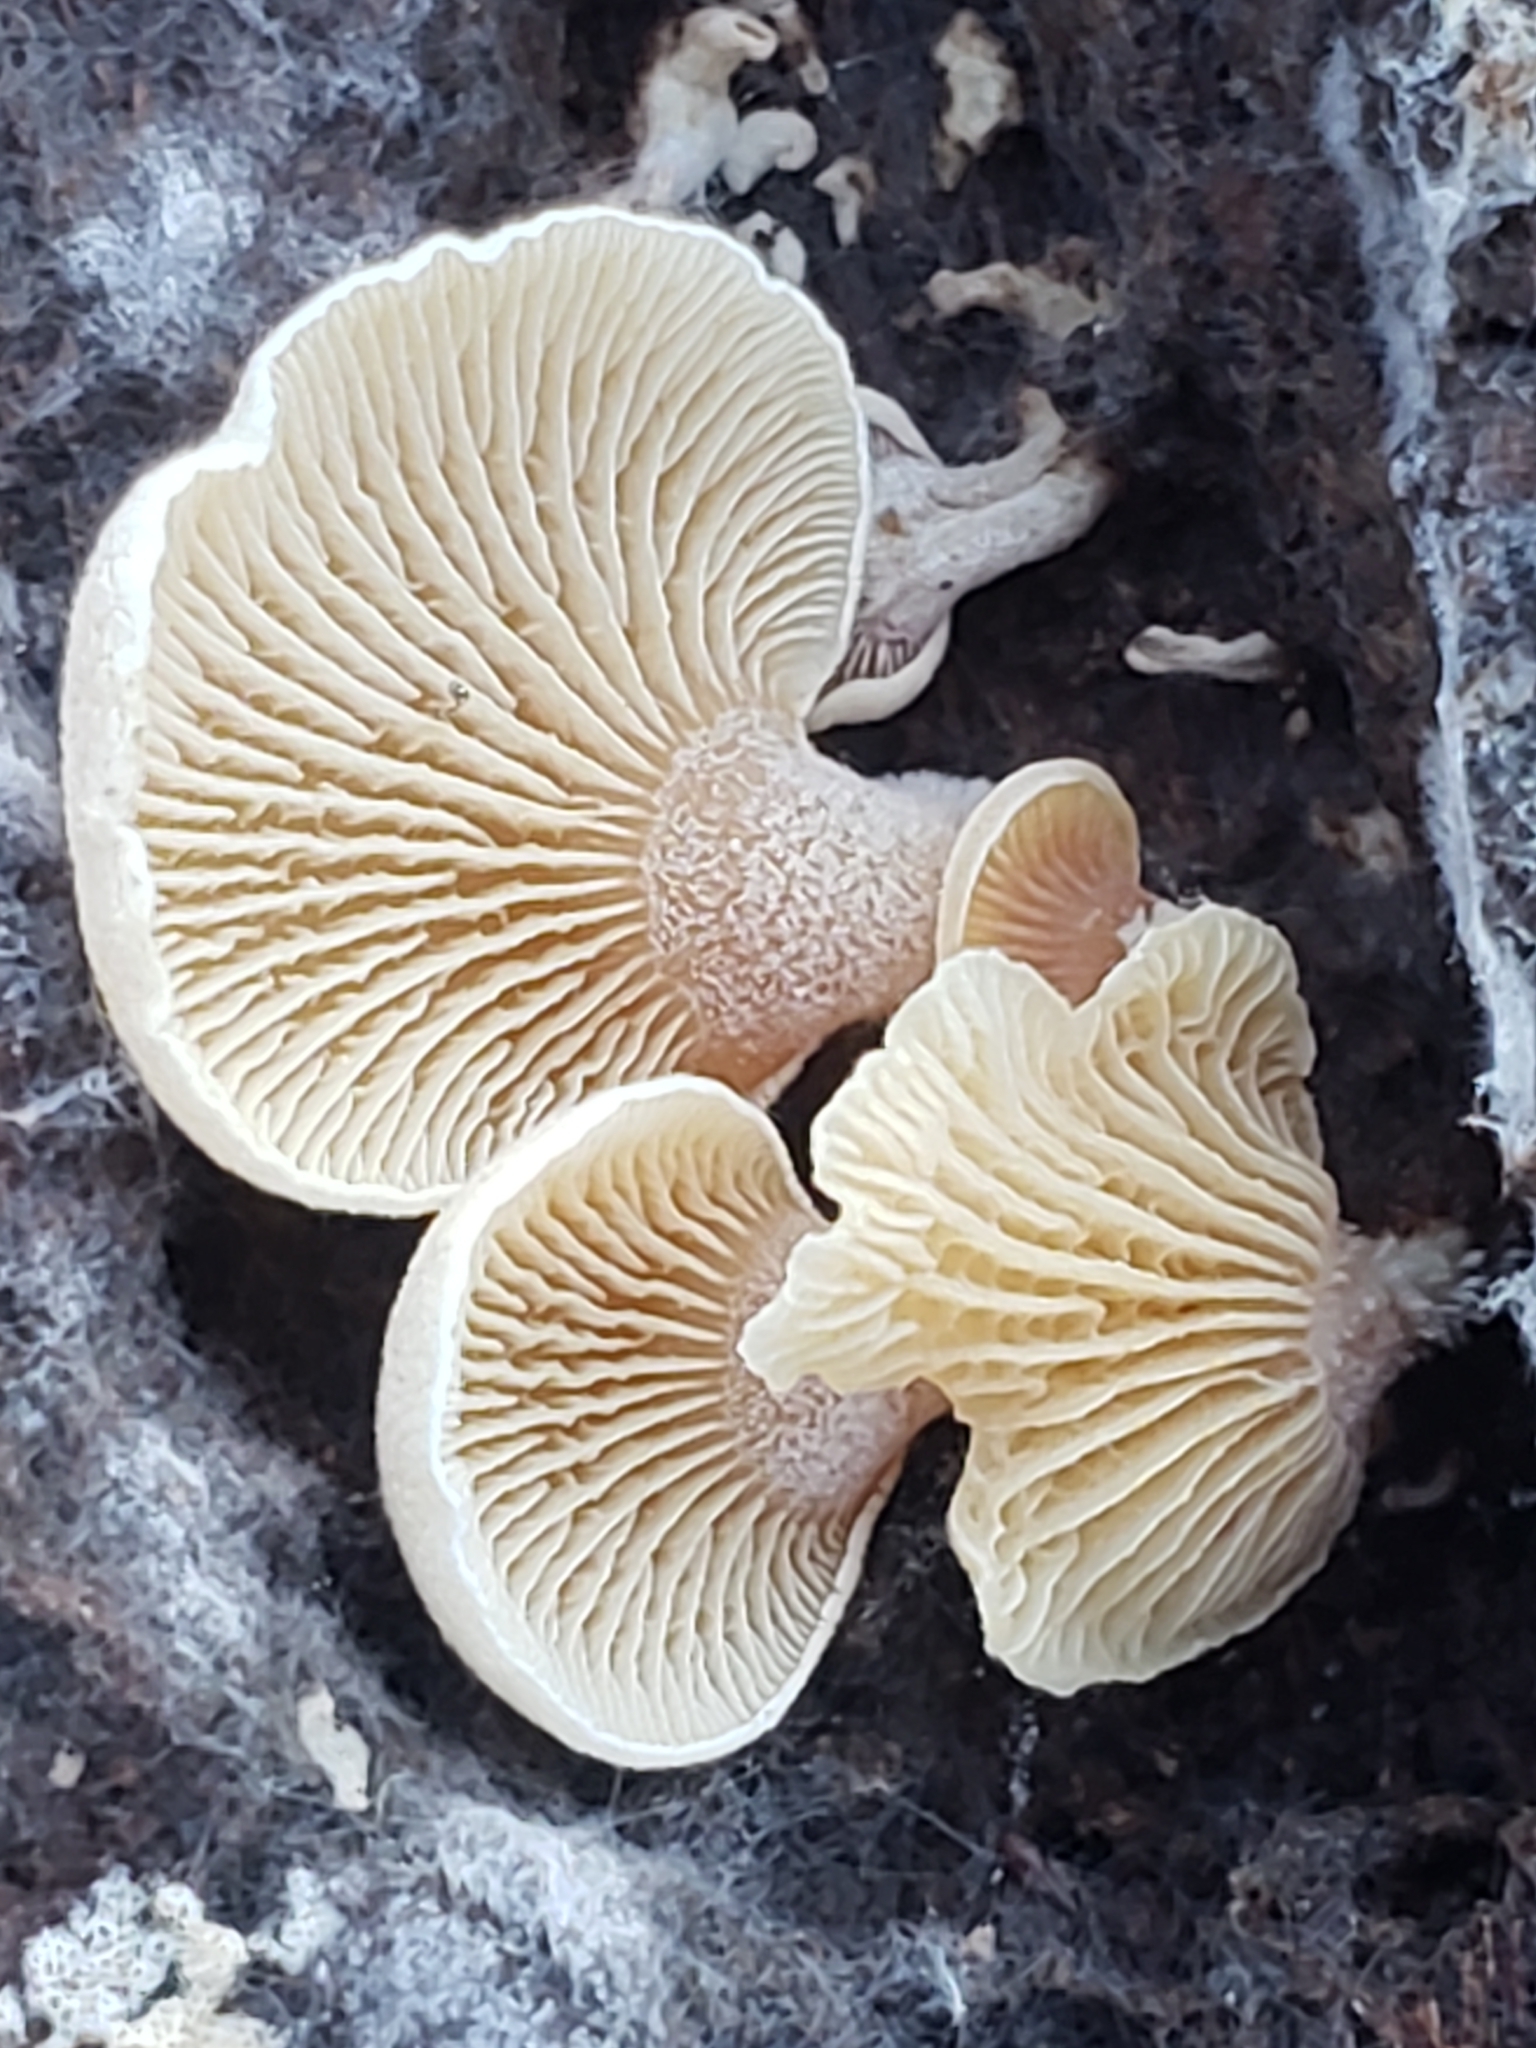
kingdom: Fungi
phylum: Basidiomycota
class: Agaricomycetes
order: Agaricales
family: Mycenaceae
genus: Panellus
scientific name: Panellus stipticus
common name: Bitter oysterling
